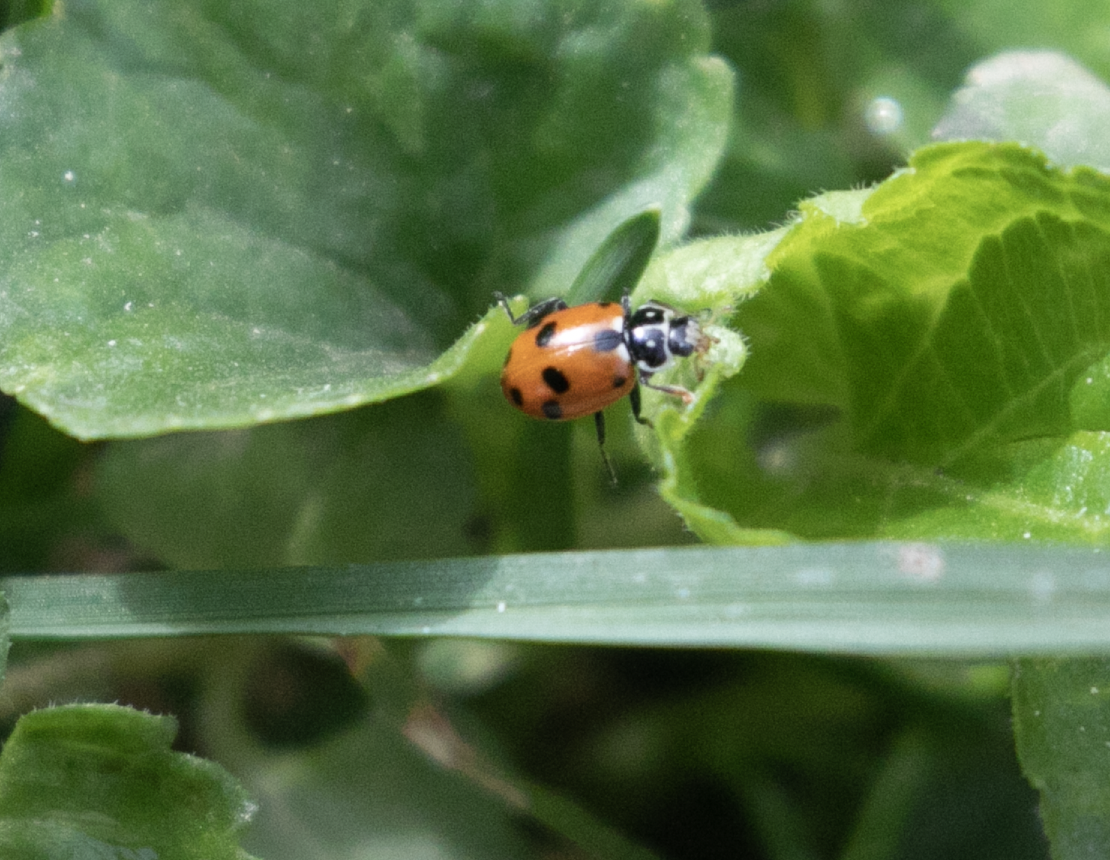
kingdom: Animalia
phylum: Arthropoda
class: Insecta
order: Coleoptera
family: Coccinellidae
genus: Hippodamia
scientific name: Hippodamia variegata
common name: Ladybird beetle
